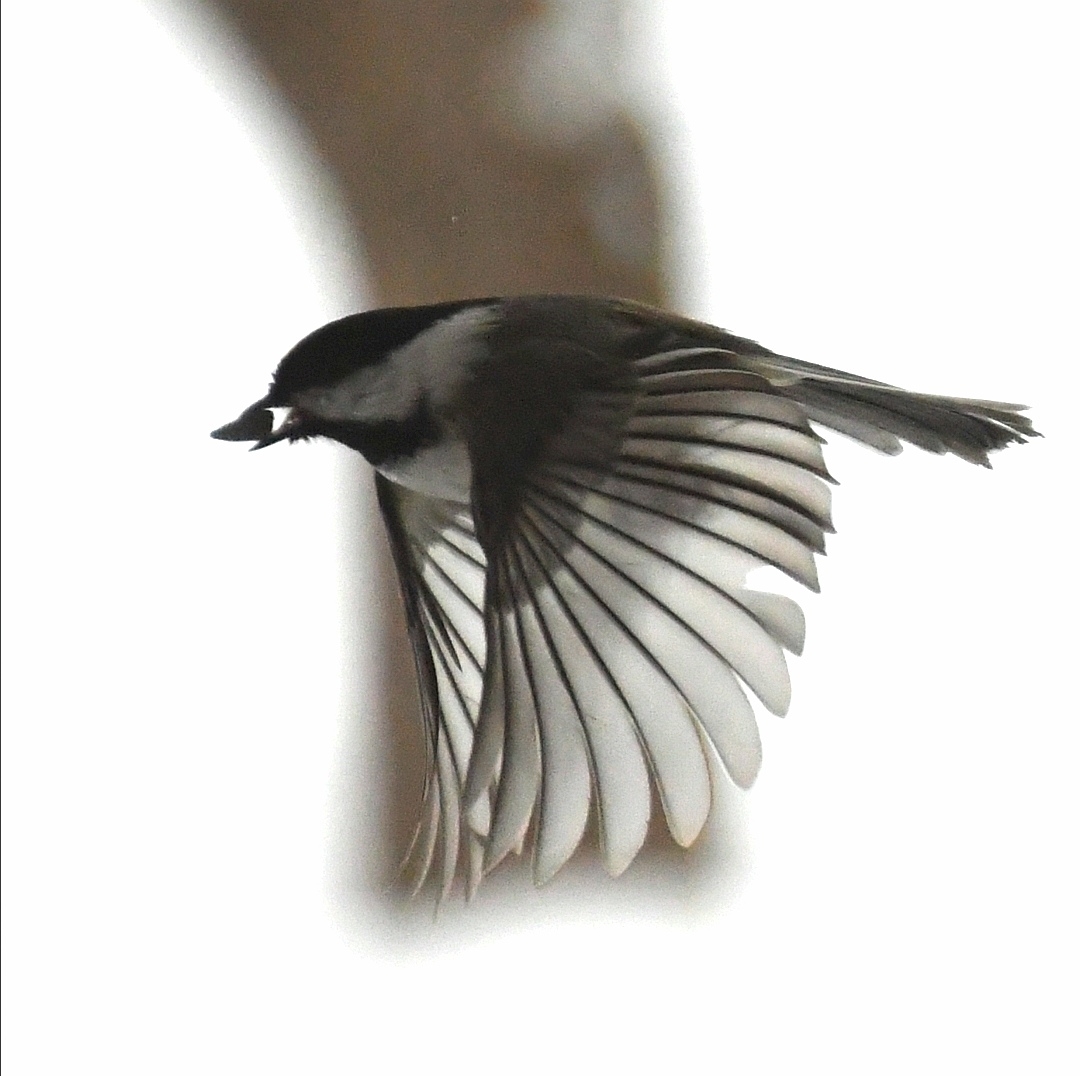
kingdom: Animalia
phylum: Chordata
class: Aves
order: Passeriformes
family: Paridae
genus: Poecile
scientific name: Poecile atricapillus
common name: Black-capped chickadee
